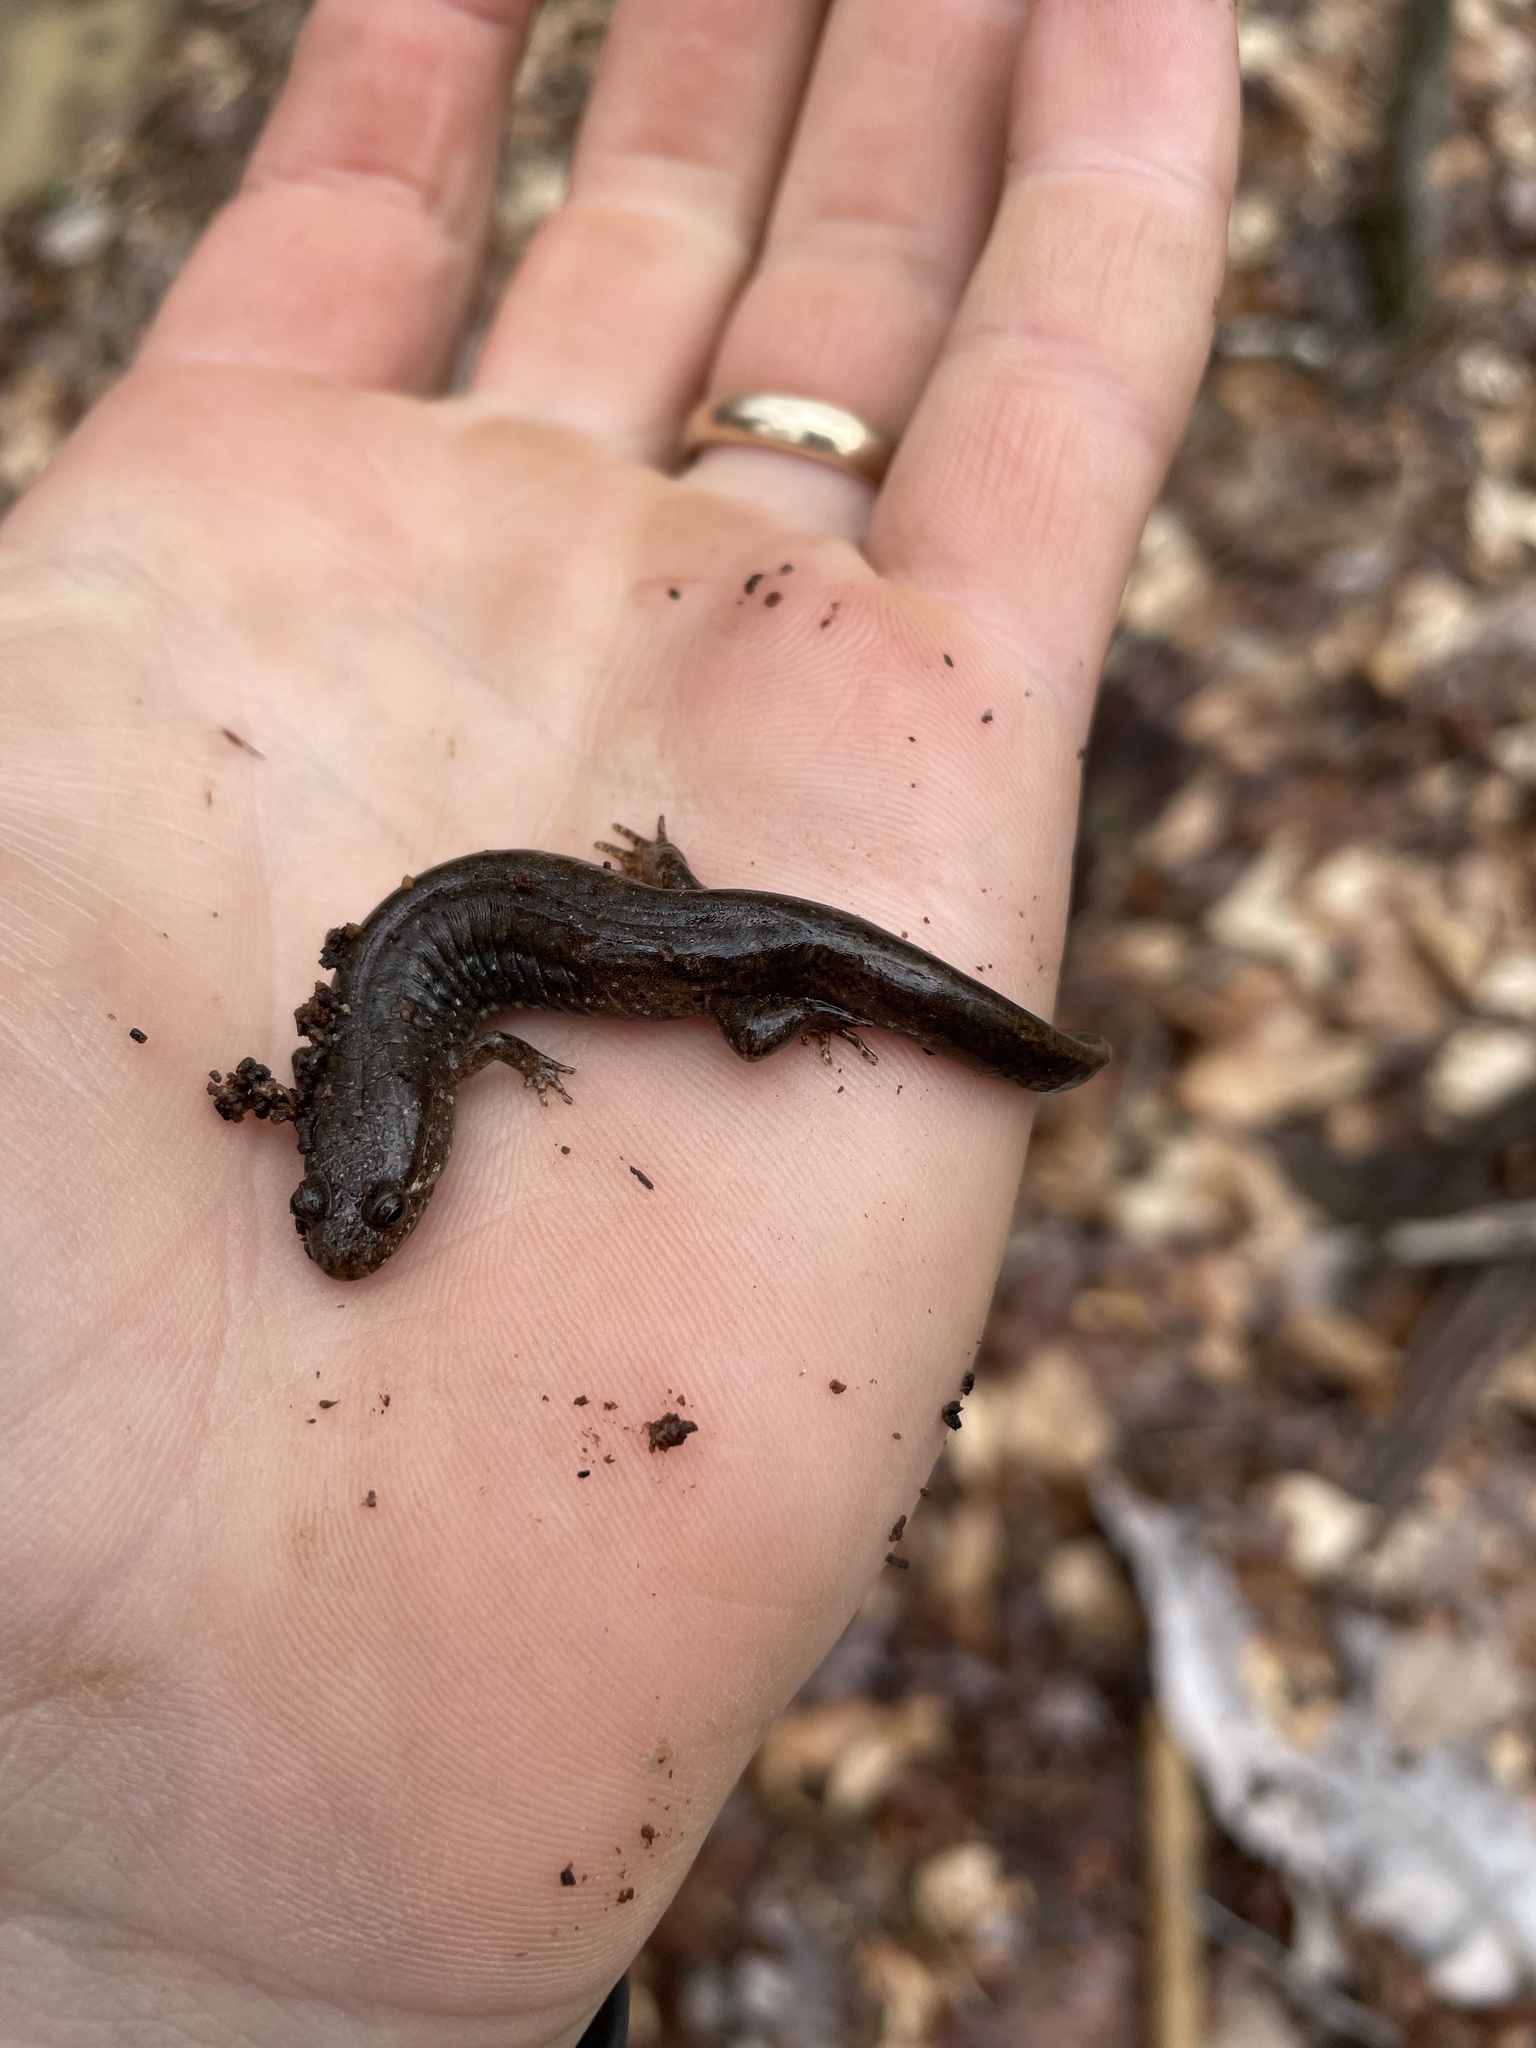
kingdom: Animalia
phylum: Chordata
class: Amphibia
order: Caudata
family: Plethodontidae
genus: Desmognathus
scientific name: Desmognathus conanti
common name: Spotted dusky salamander
